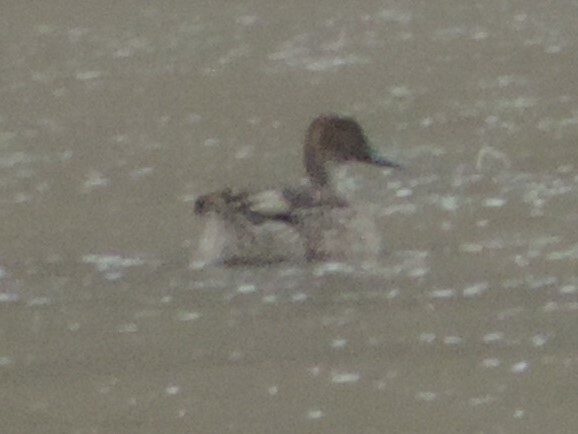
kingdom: Animalia
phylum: Chordata
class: Aves
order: Anseriformes
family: Anatidae
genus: Anas
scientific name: Anas acuta
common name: Northern pintail
